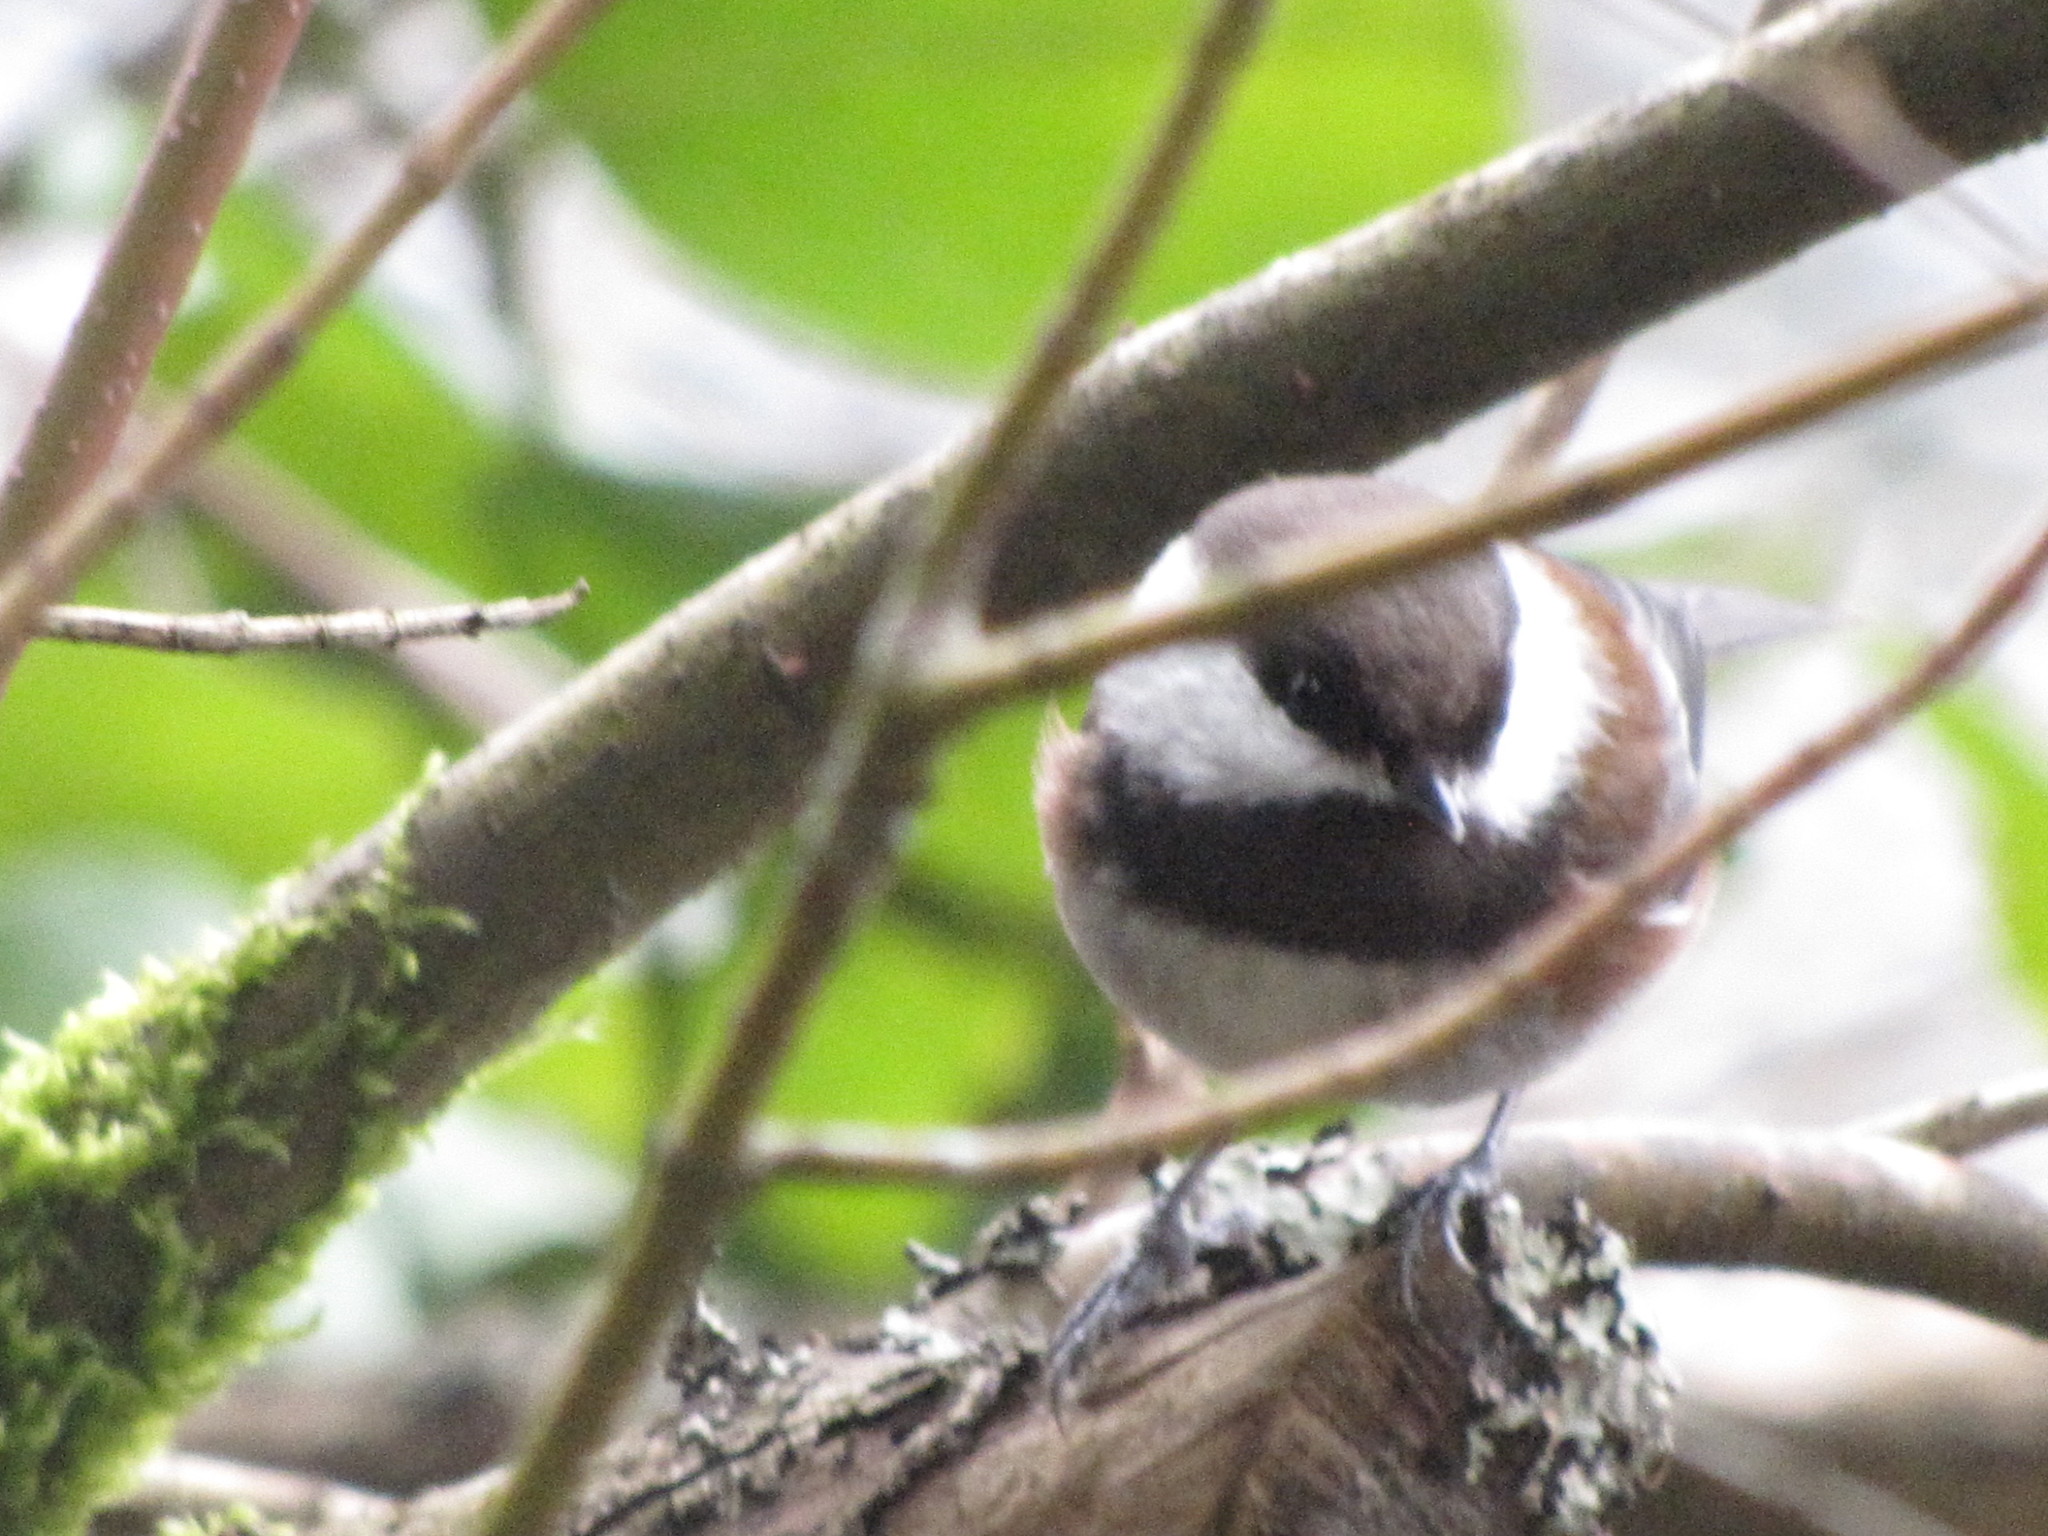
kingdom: Animalia
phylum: Chordata
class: Aves
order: Passeriformes
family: Paridae
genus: Poecile
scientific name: Poecile rufescens
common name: Chestnut-backed chickadee
